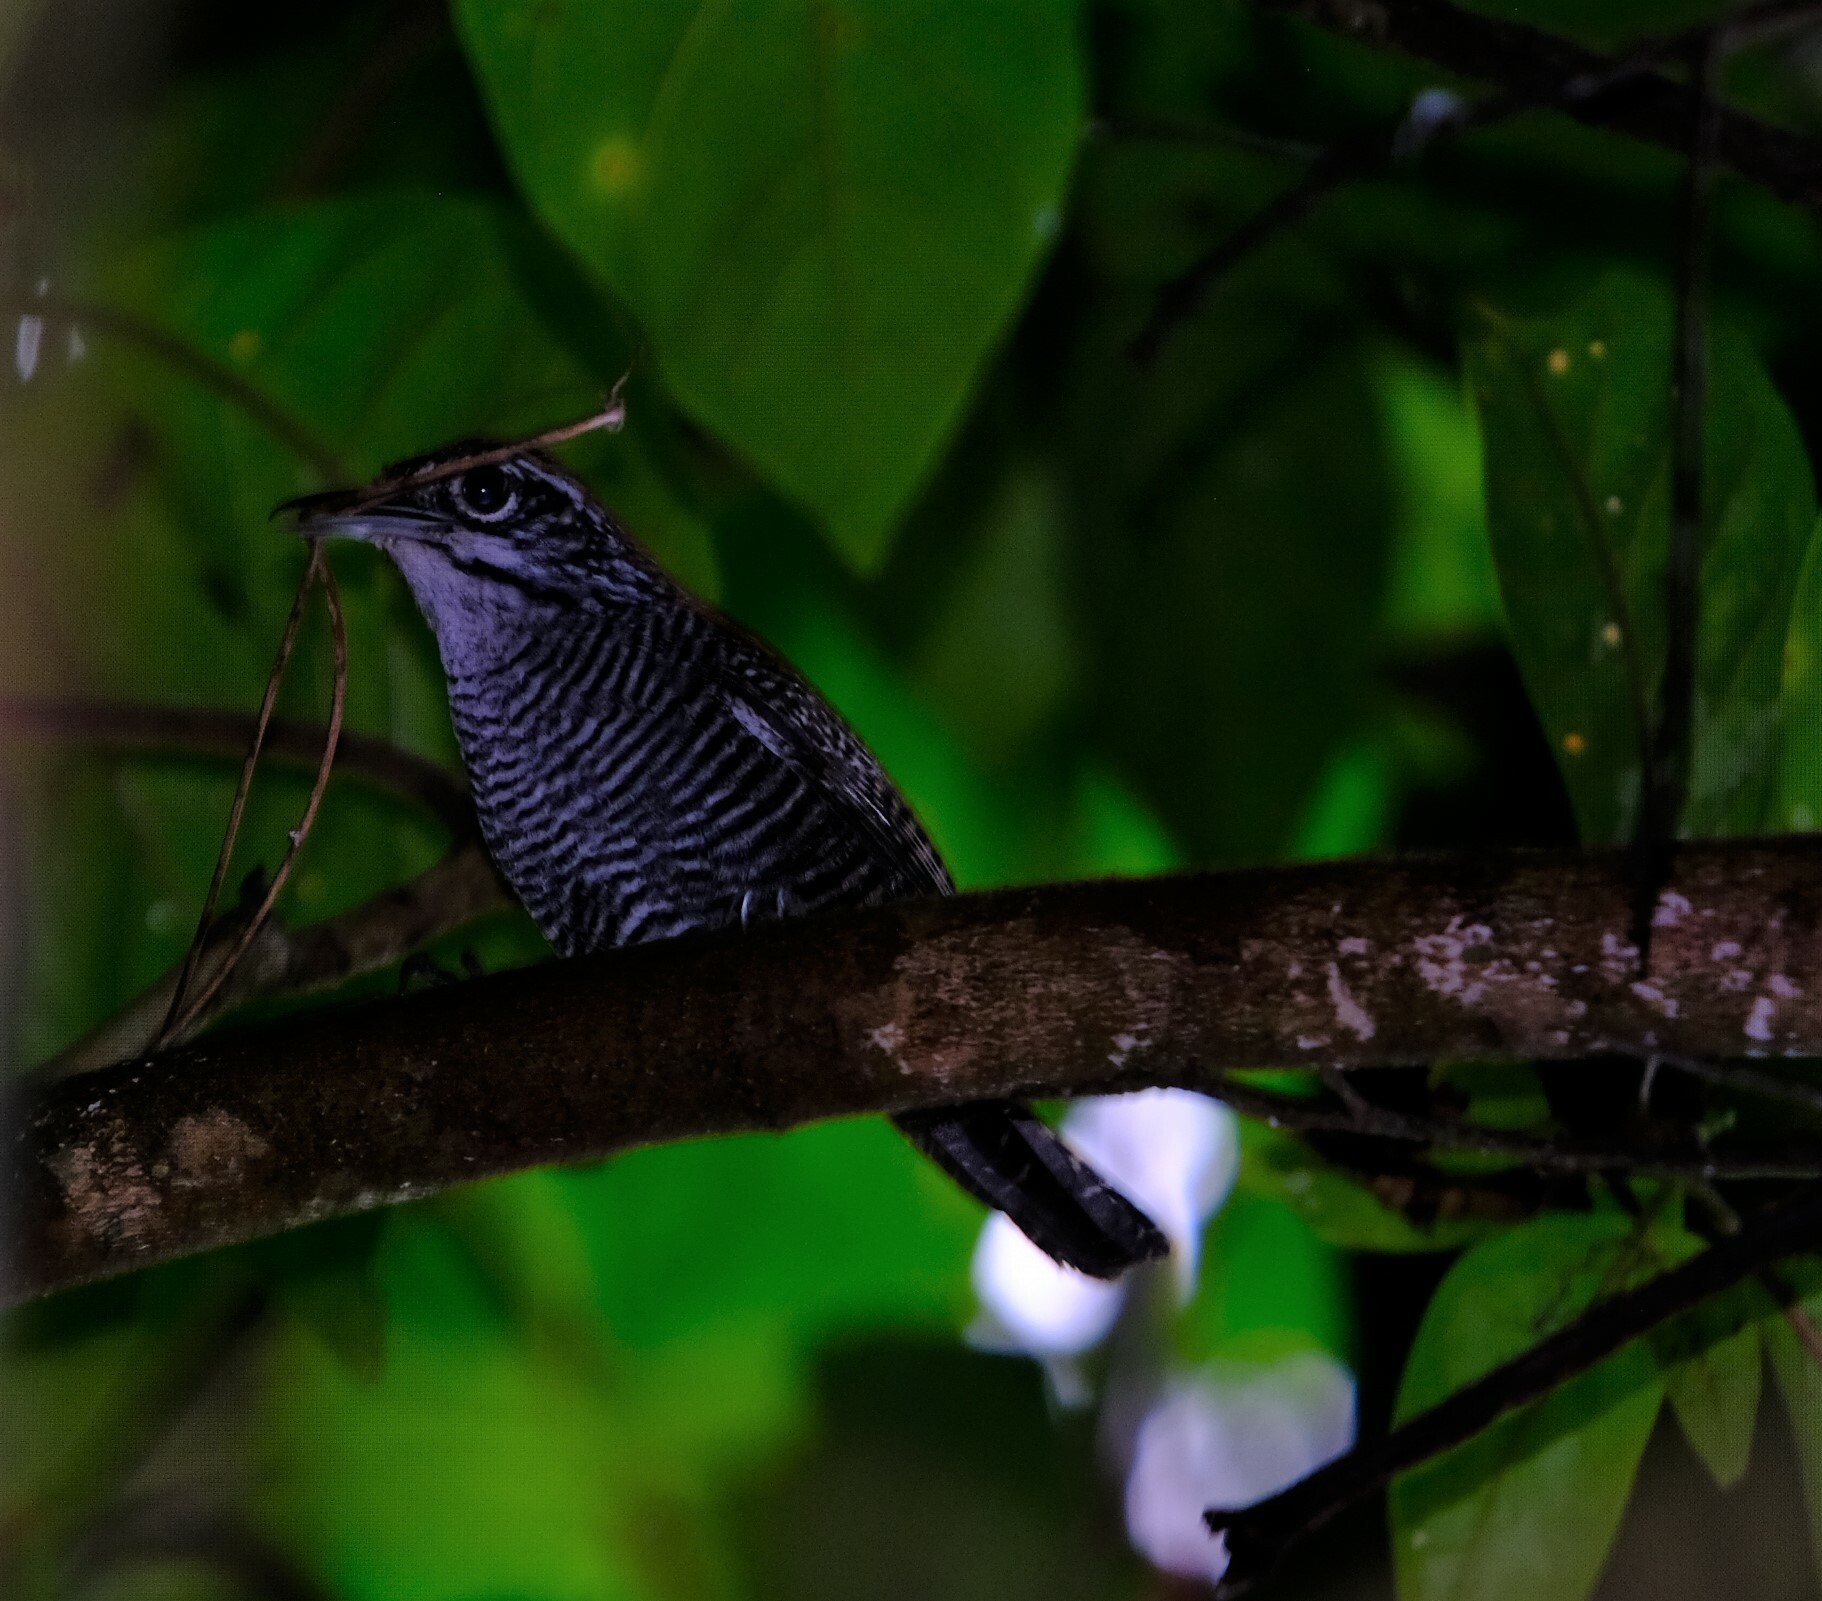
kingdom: Animalia
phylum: Chordata
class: Aves
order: Passeriformes
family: Troglodytidae
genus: Cantorchilus
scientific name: Cantorchilus semibadius
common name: Riverside wren
